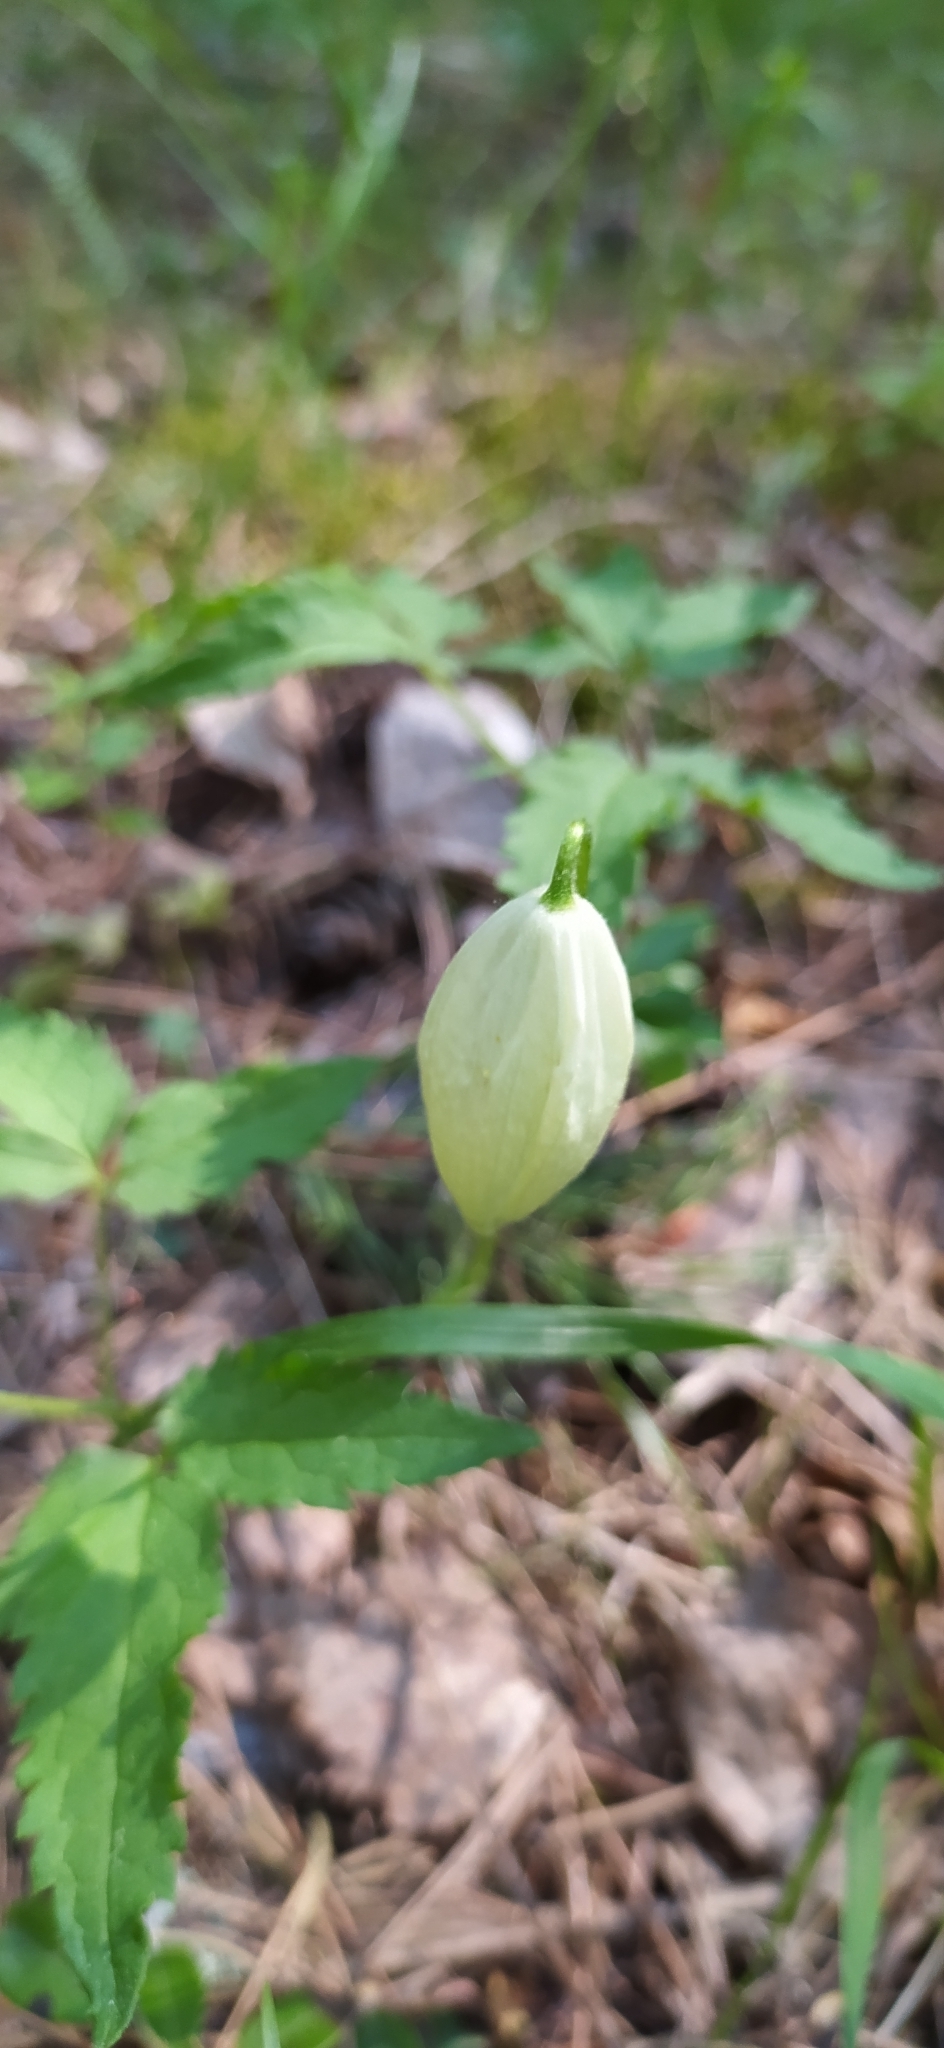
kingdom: Plantae
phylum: Tracheophyta
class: Magnoliopsida
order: Ranunculales
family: Ranunculaceae
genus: Clematis
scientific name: Clematis sibirica
